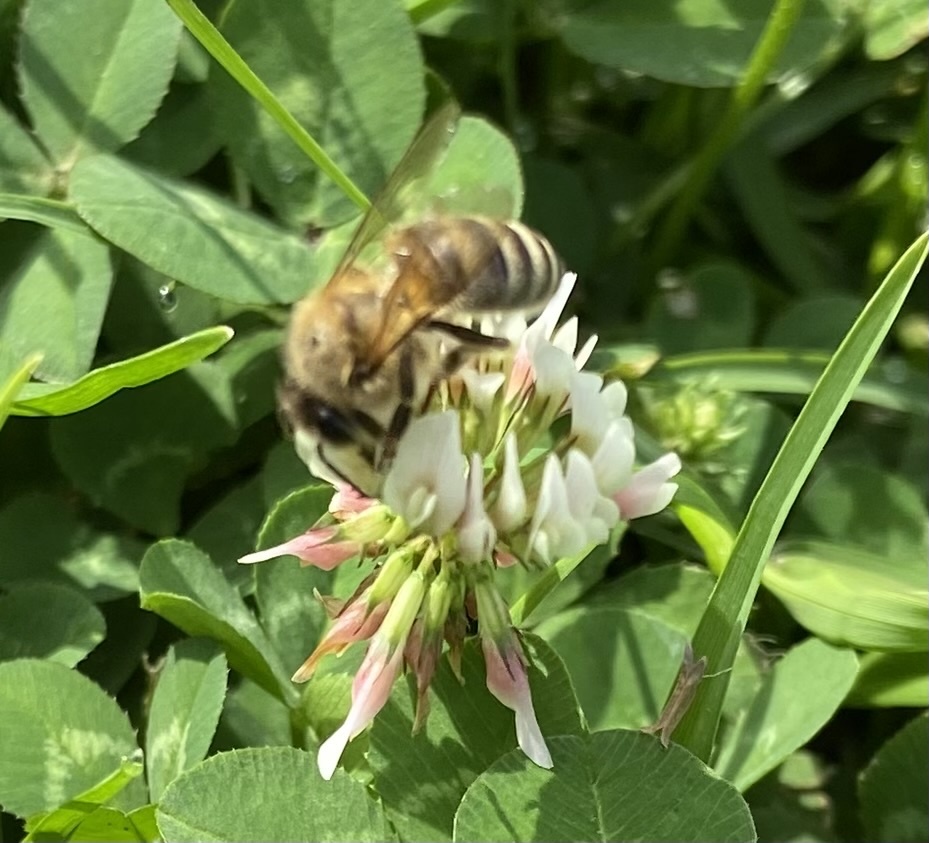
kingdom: Animalia
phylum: Arthropoda
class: Insecta
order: Hymenoptera
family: Apidae
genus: Apis
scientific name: Apis mellifera
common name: Honey bee
